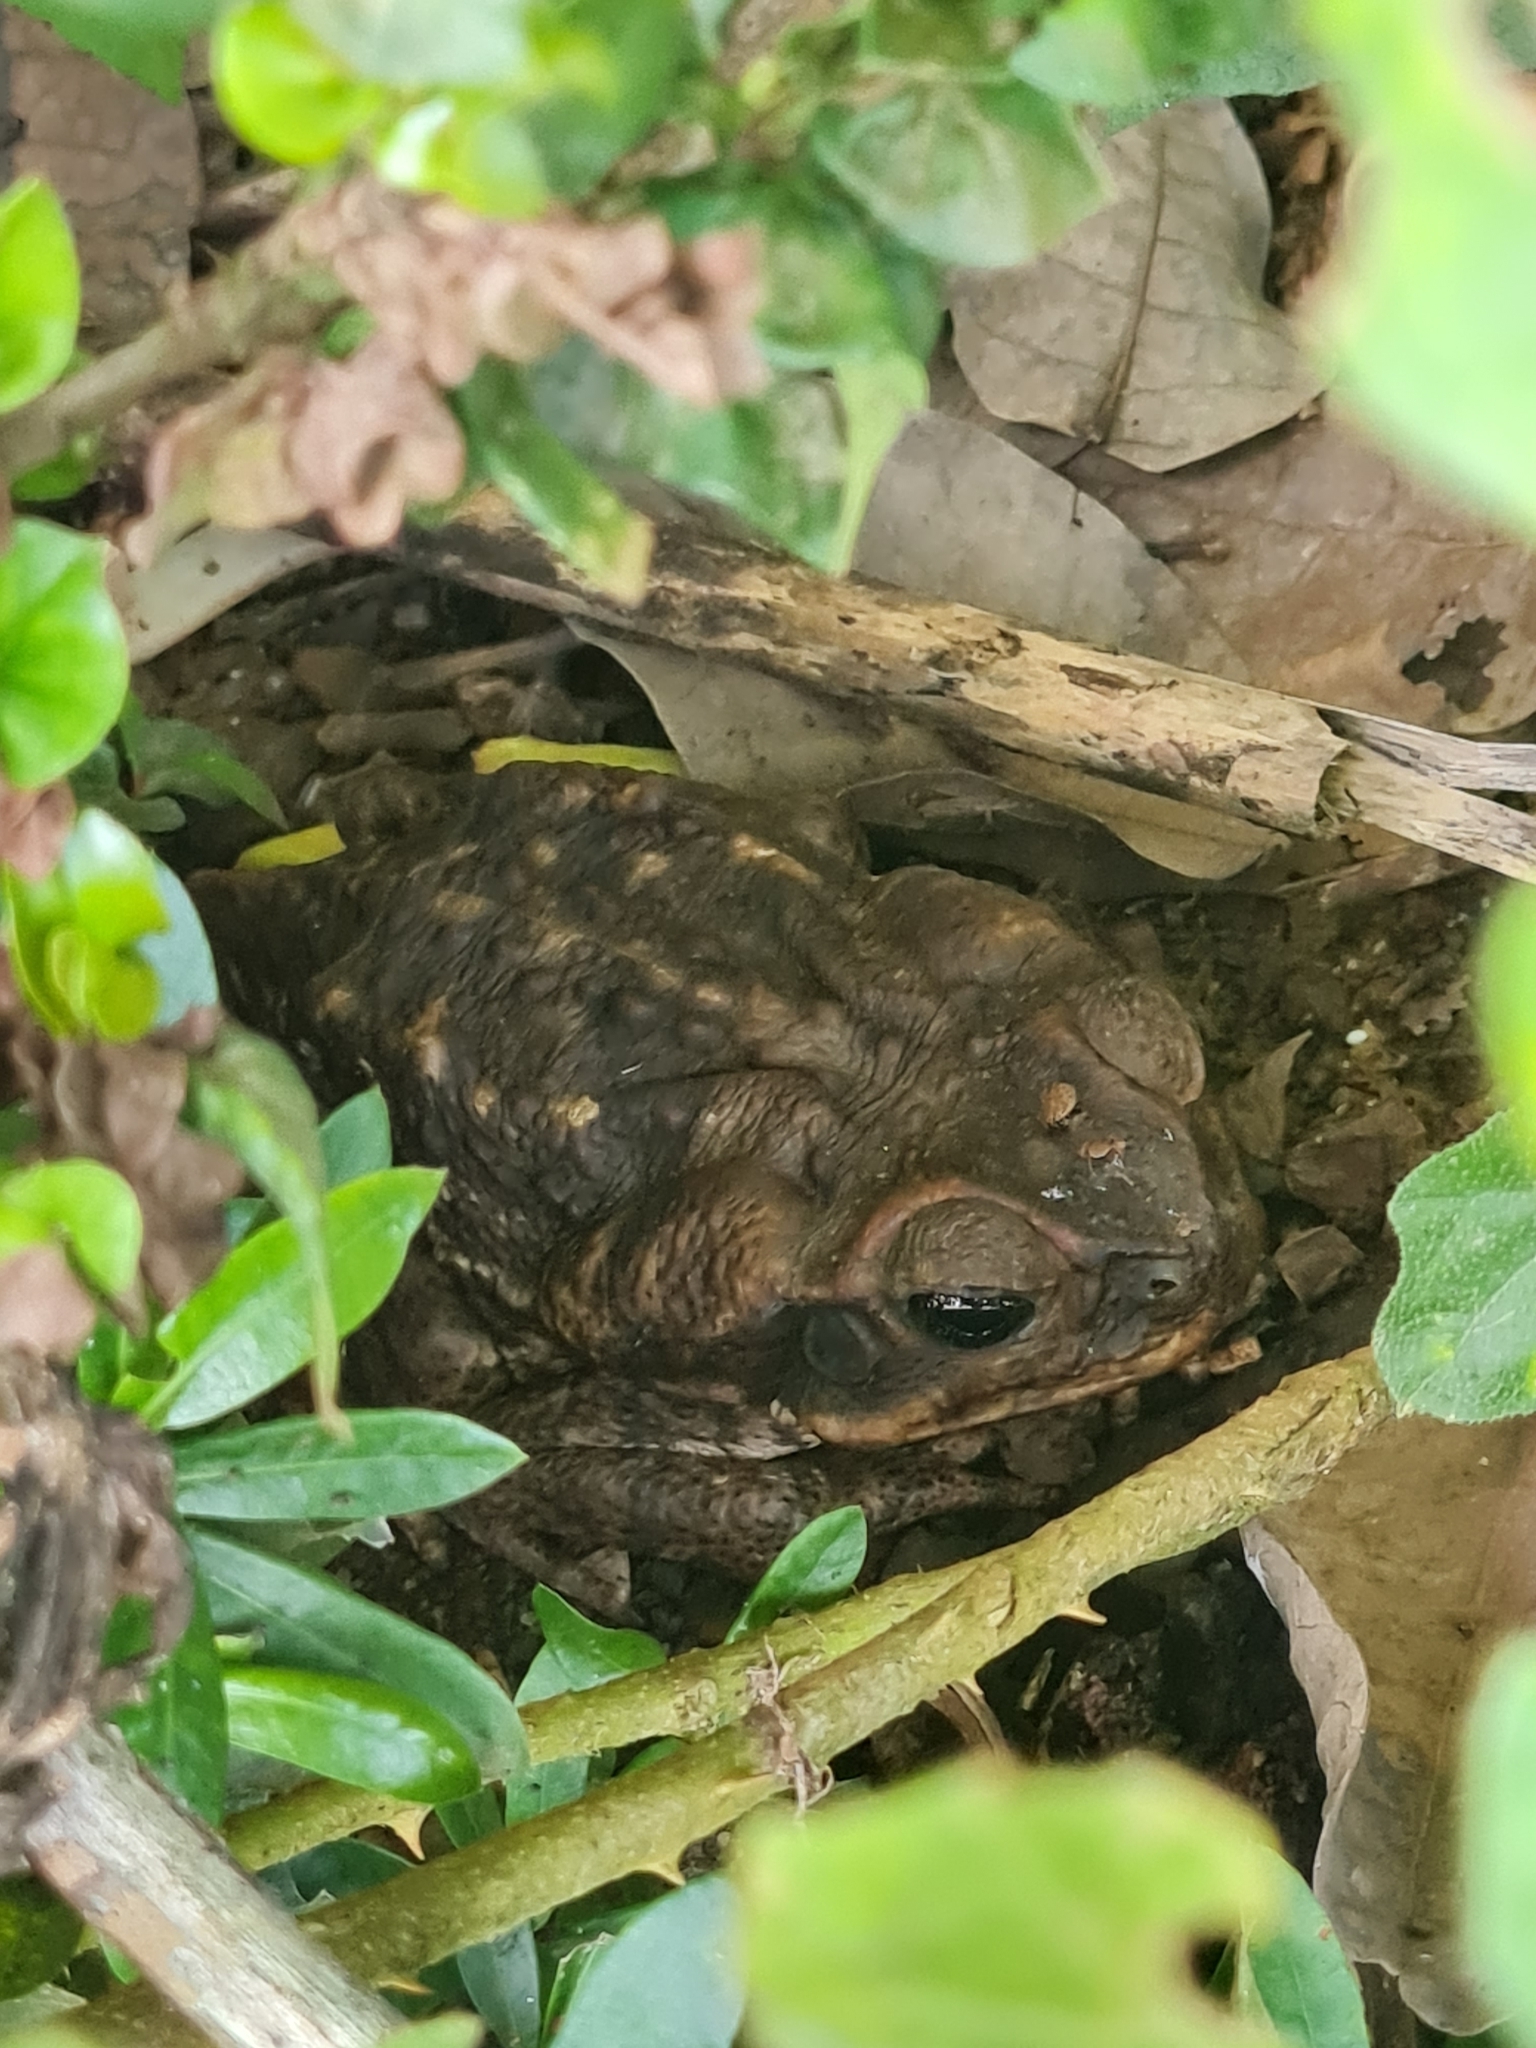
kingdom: Animalia
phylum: Chordata
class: Amphibia
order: Anura
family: Bufonidae
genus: Rhinella
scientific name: Rhinella horribilis
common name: Mesoamerican cane toad
